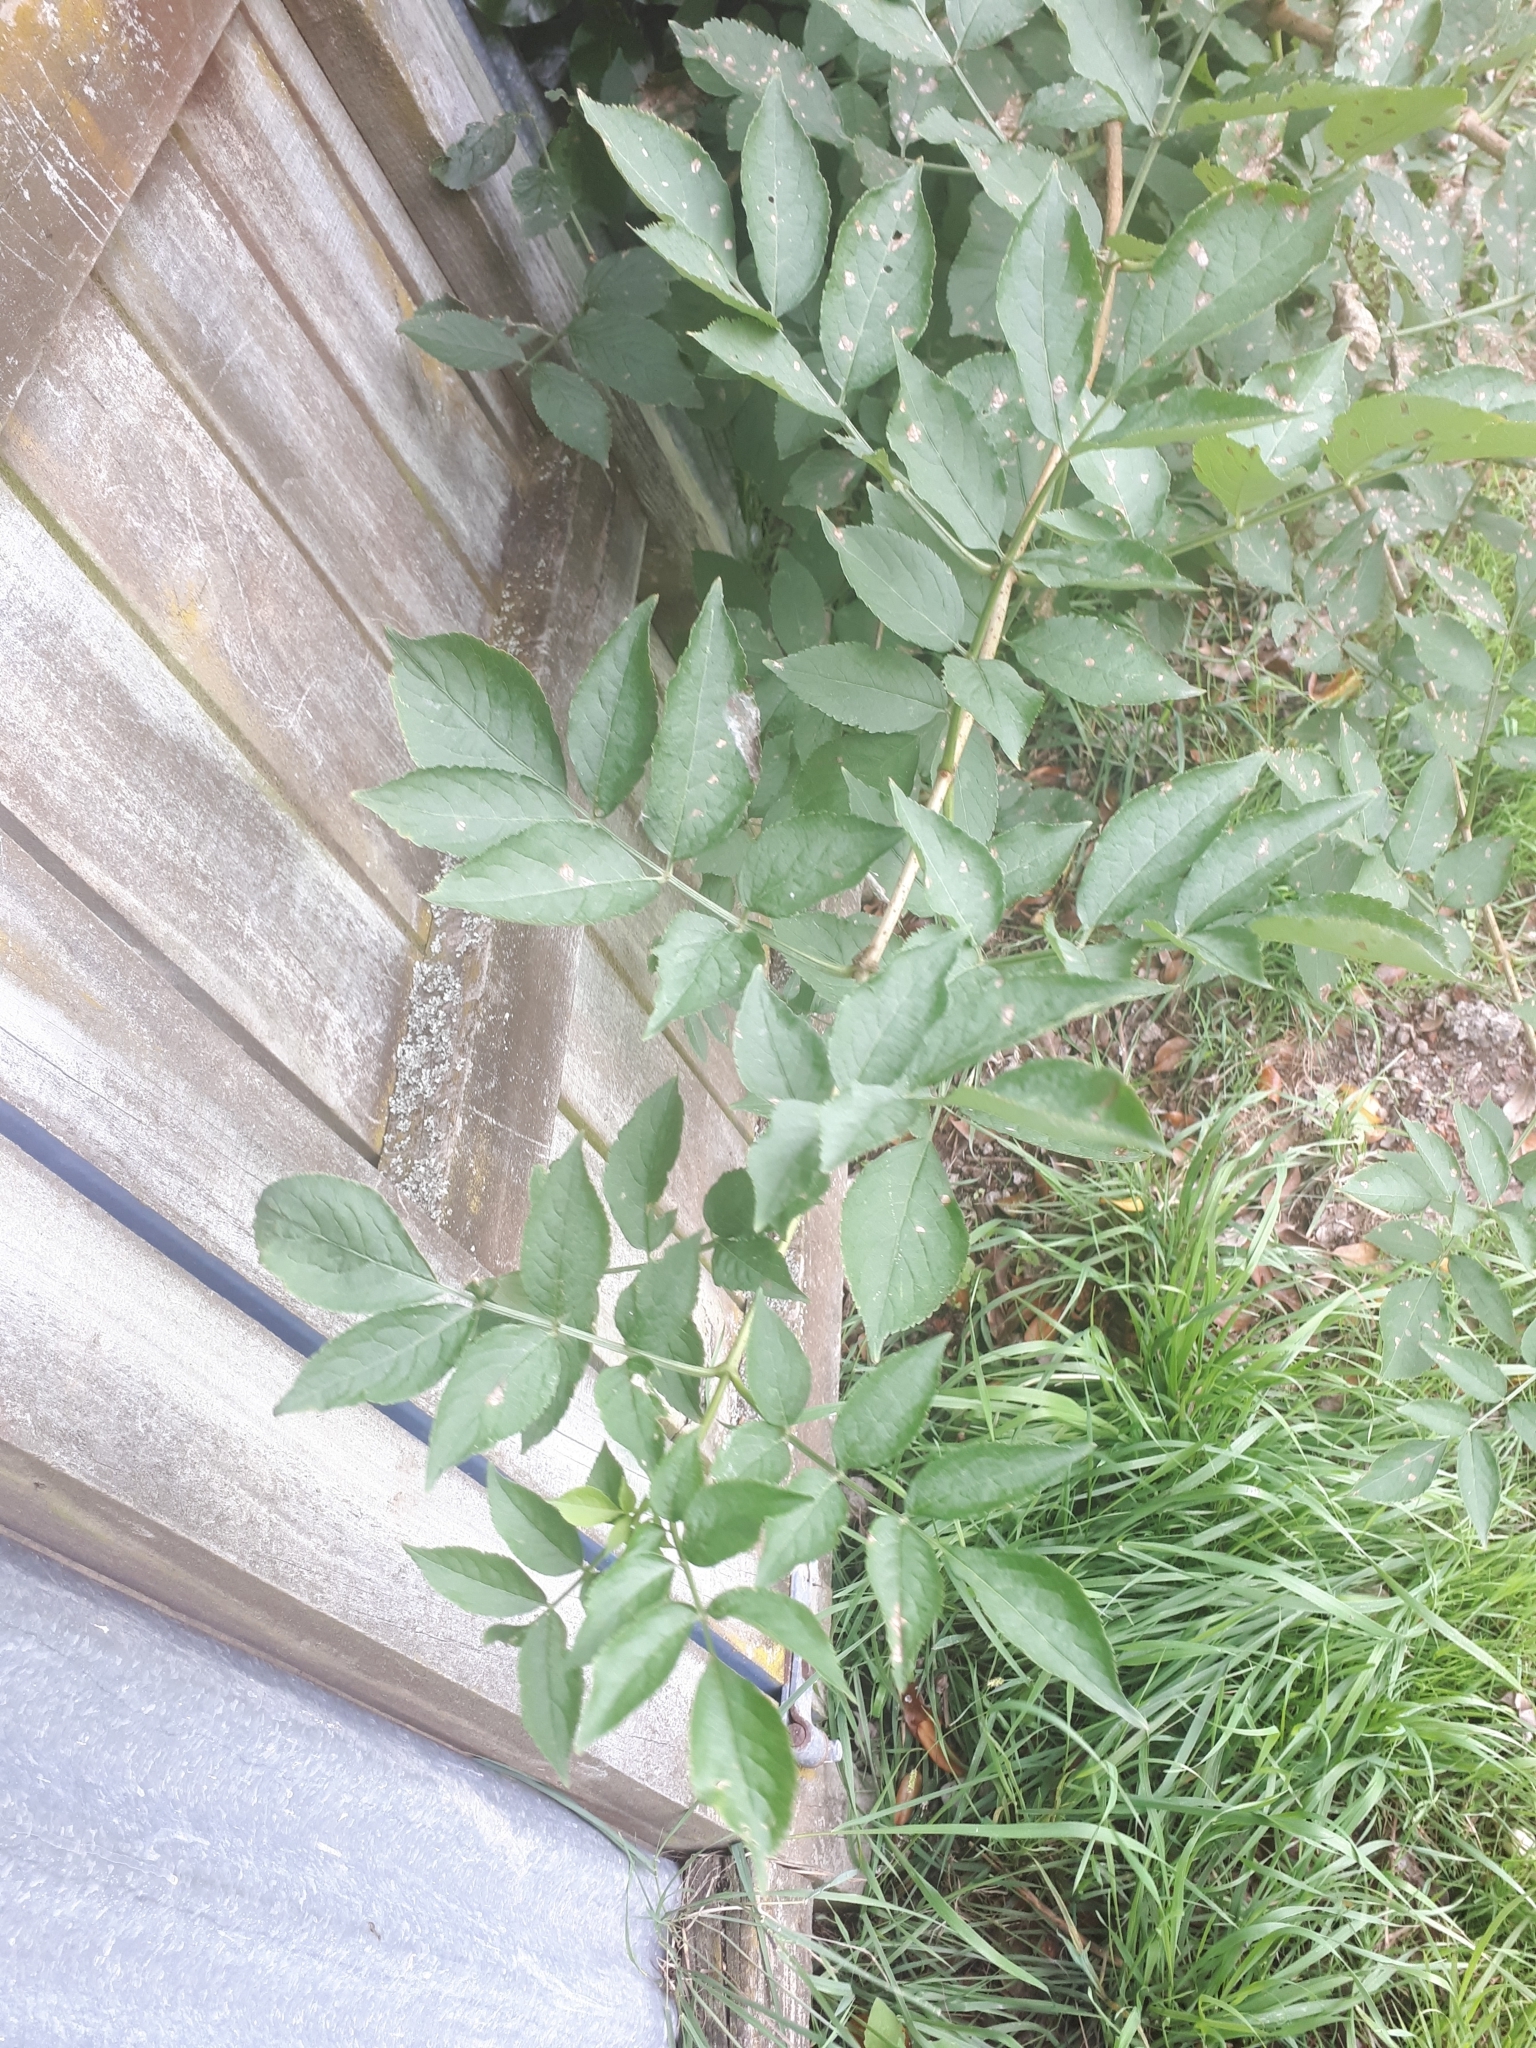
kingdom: Plantae
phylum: Tracheophyta
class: Magnoliopsida
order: Dipsacales
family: Viburnaceae
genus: Sambucus
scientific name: Sambucus nigra
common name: Elder
